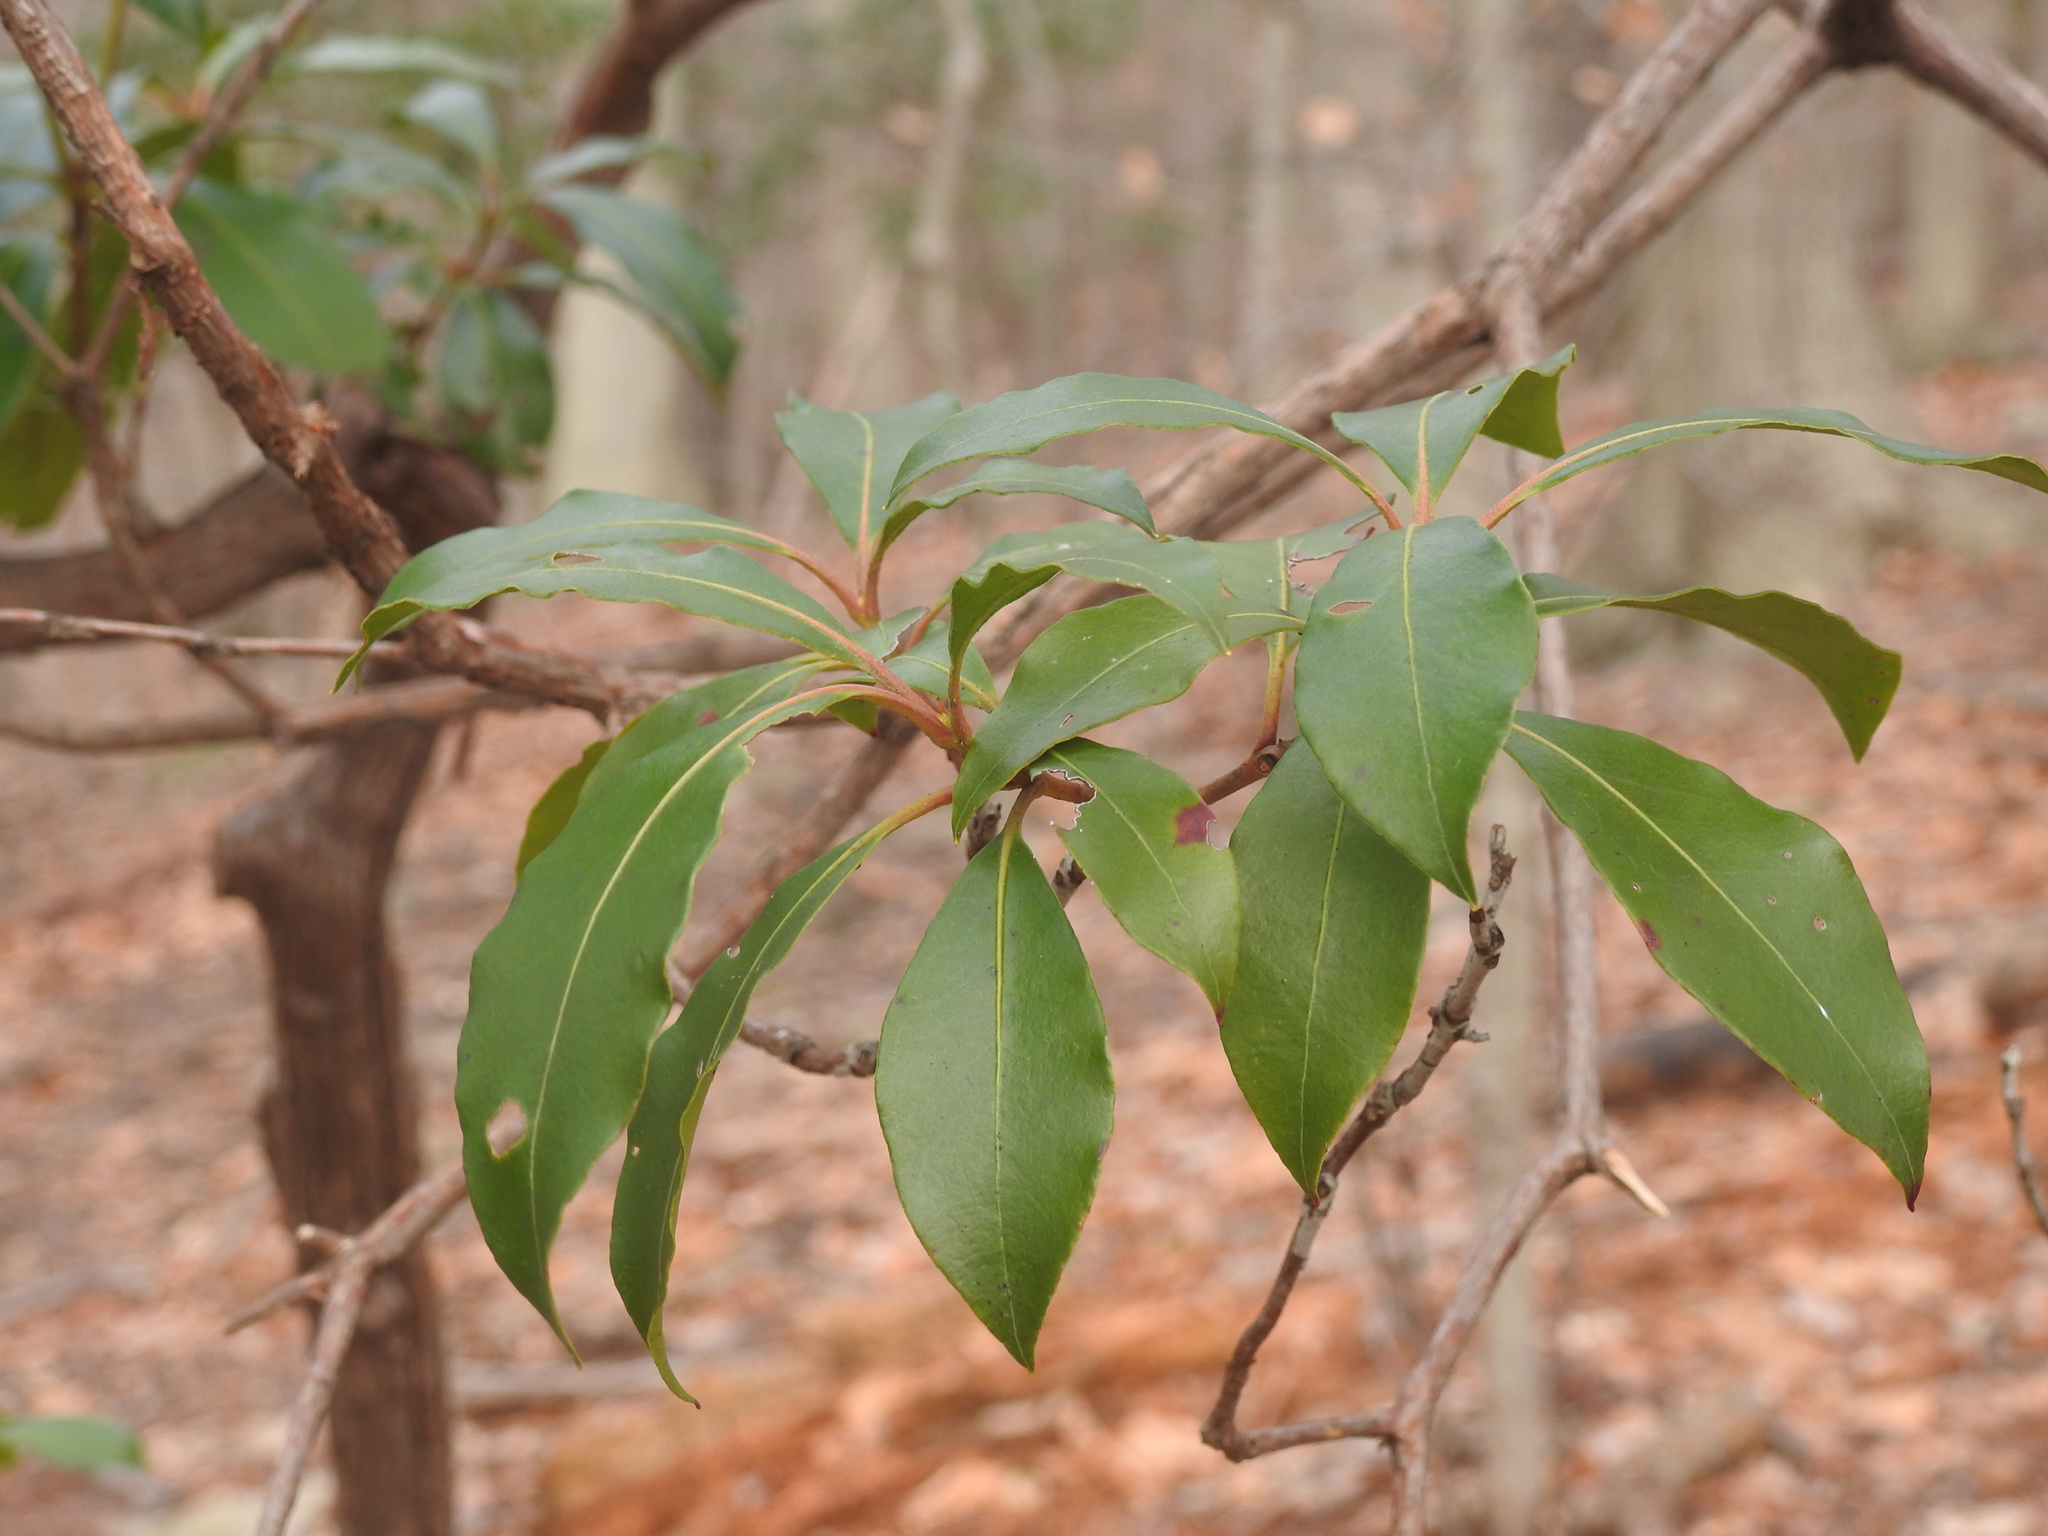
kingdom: Plantae
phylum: Tracheophyta
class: Magnoliopsida
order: Ericales
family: Ericaceae
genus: Kalmia
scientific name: Kalmia latifolia
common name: Mountain-laurel
